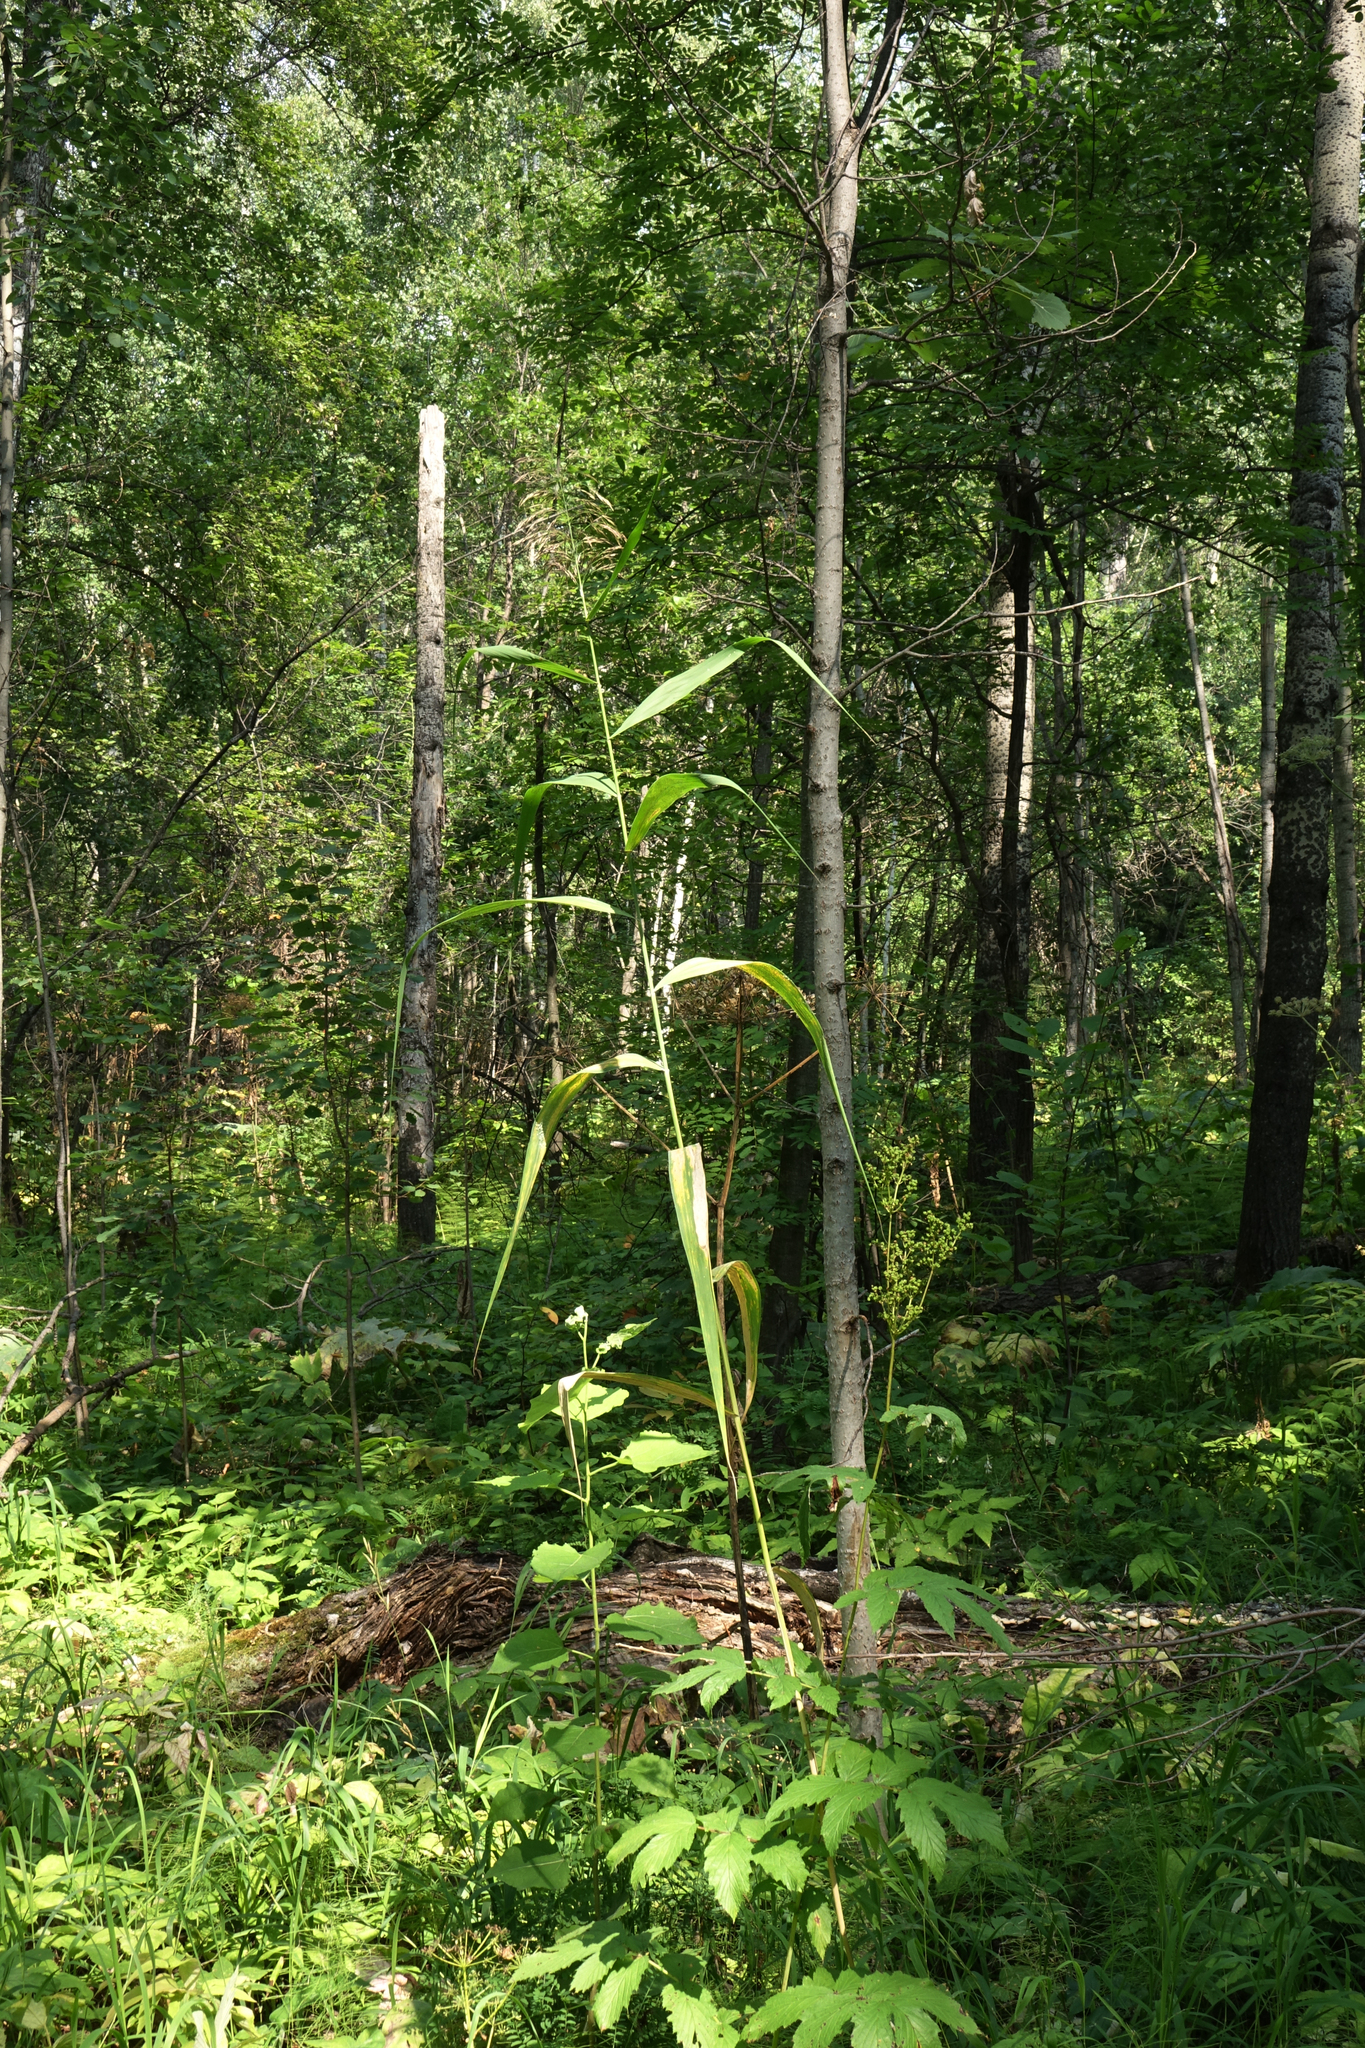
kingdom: Plantae
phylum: Tracheophyta
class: Liliopsida
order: Poales
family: Poaceae
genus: Phragmites
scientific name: Phragmites australis
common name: Common reed
